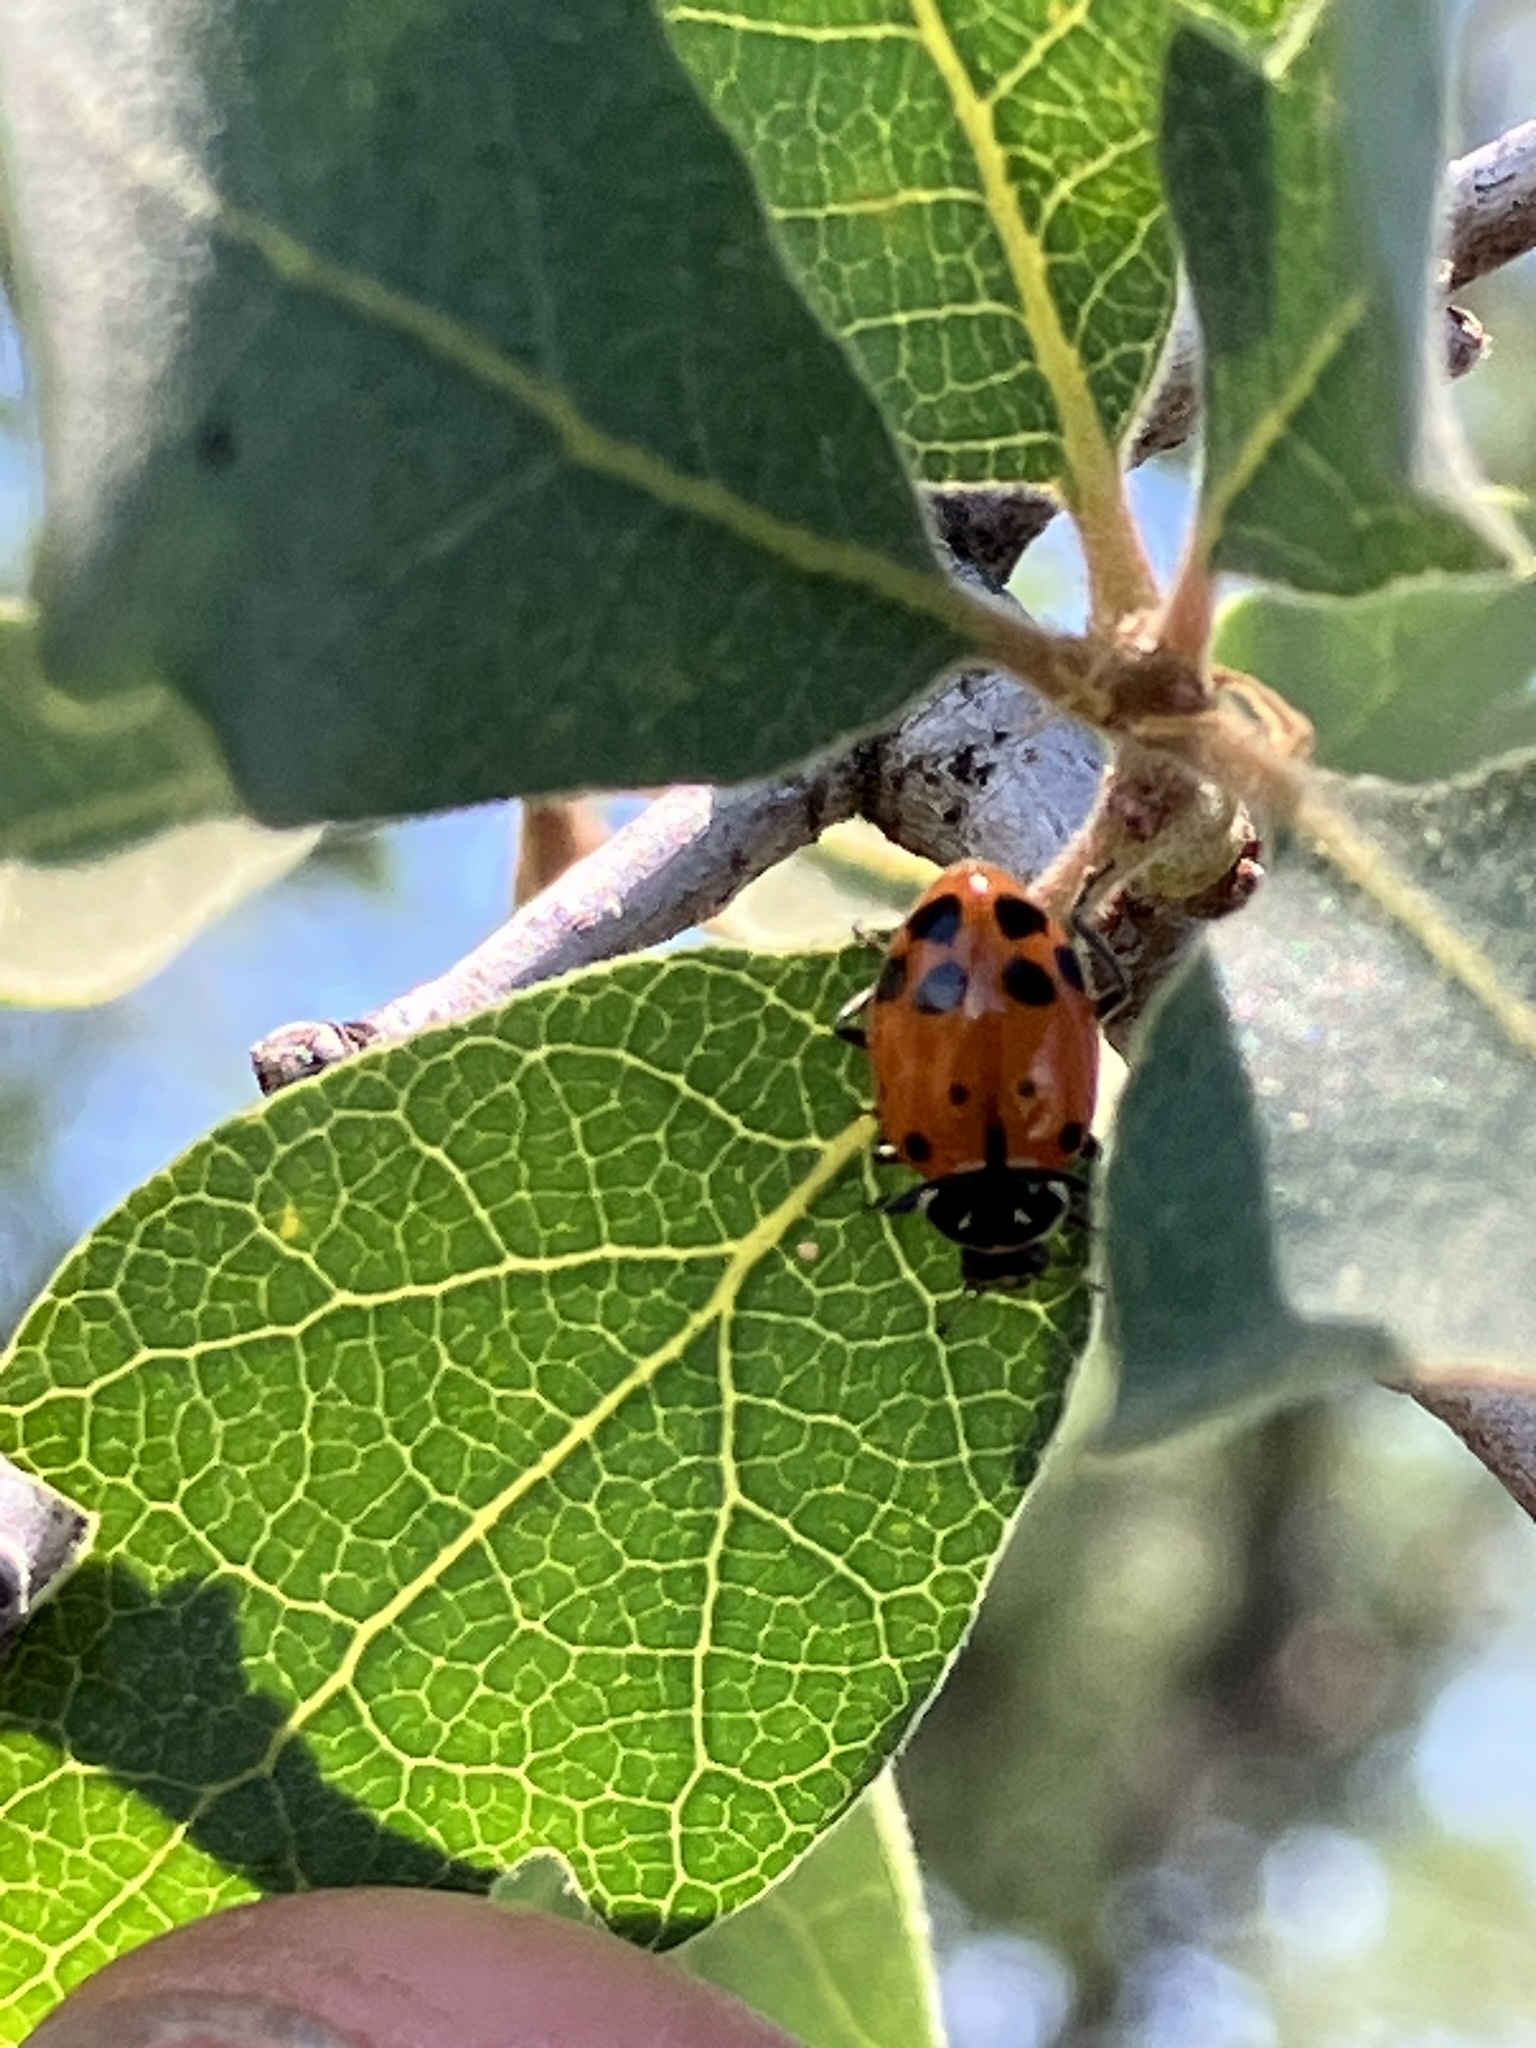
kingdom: Animalia
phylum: Arthropoda
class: Insecta
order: Coleoptera
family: Coccinellidae
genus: Hippodamia
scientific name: Hippodamia convergens
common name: Convergent lady beetle
